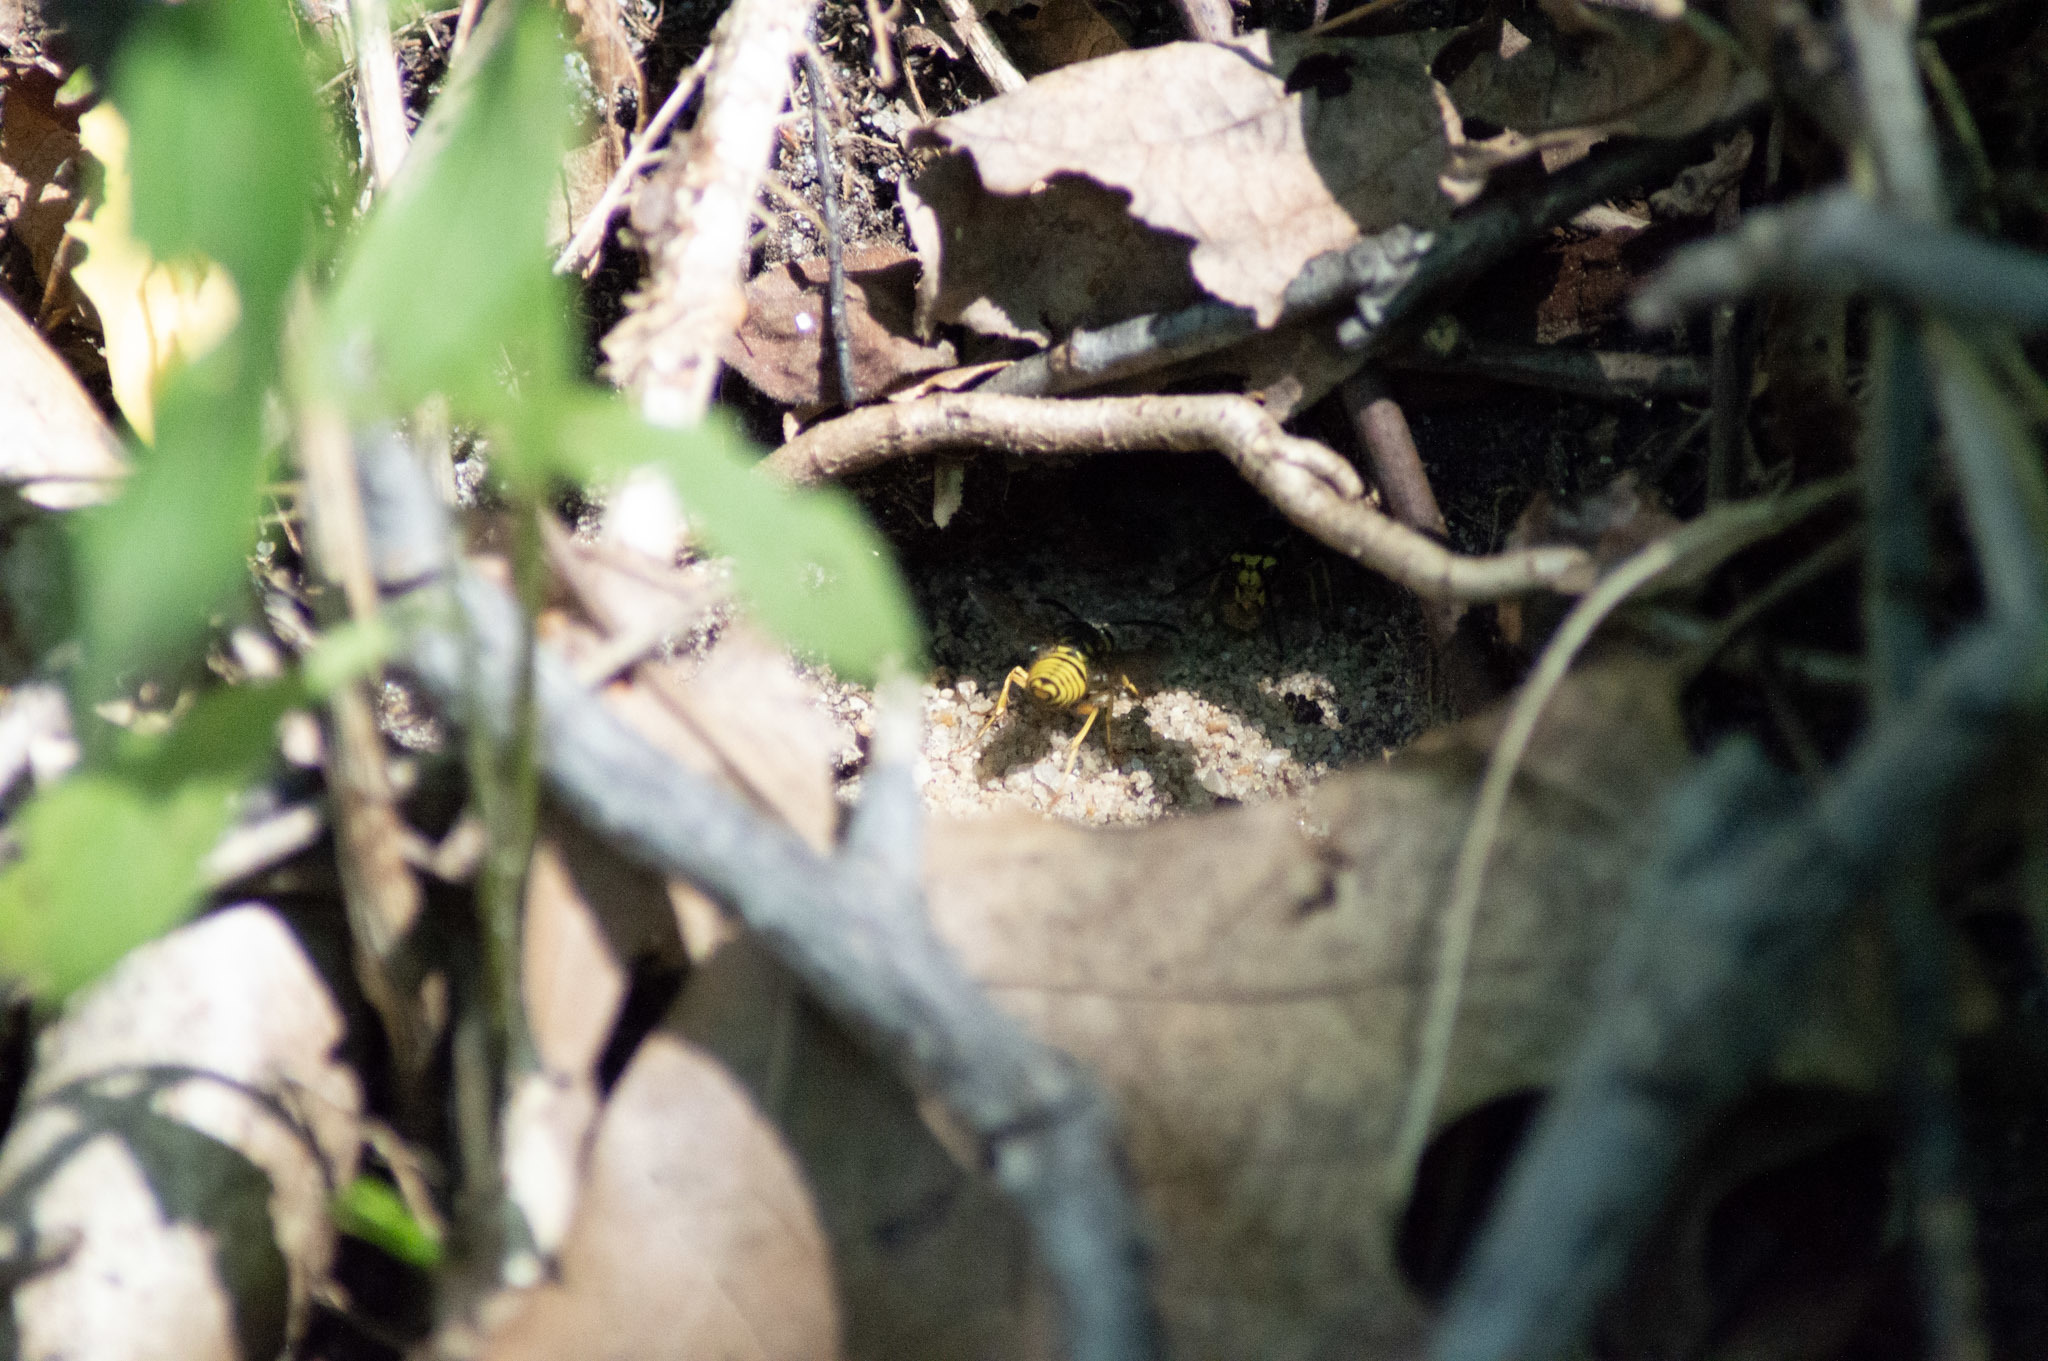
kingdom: Animalia
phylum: Arthropoda
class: Insecta
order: Hymenoptera
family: Vespidae
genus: Vespula
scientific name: Vespula
